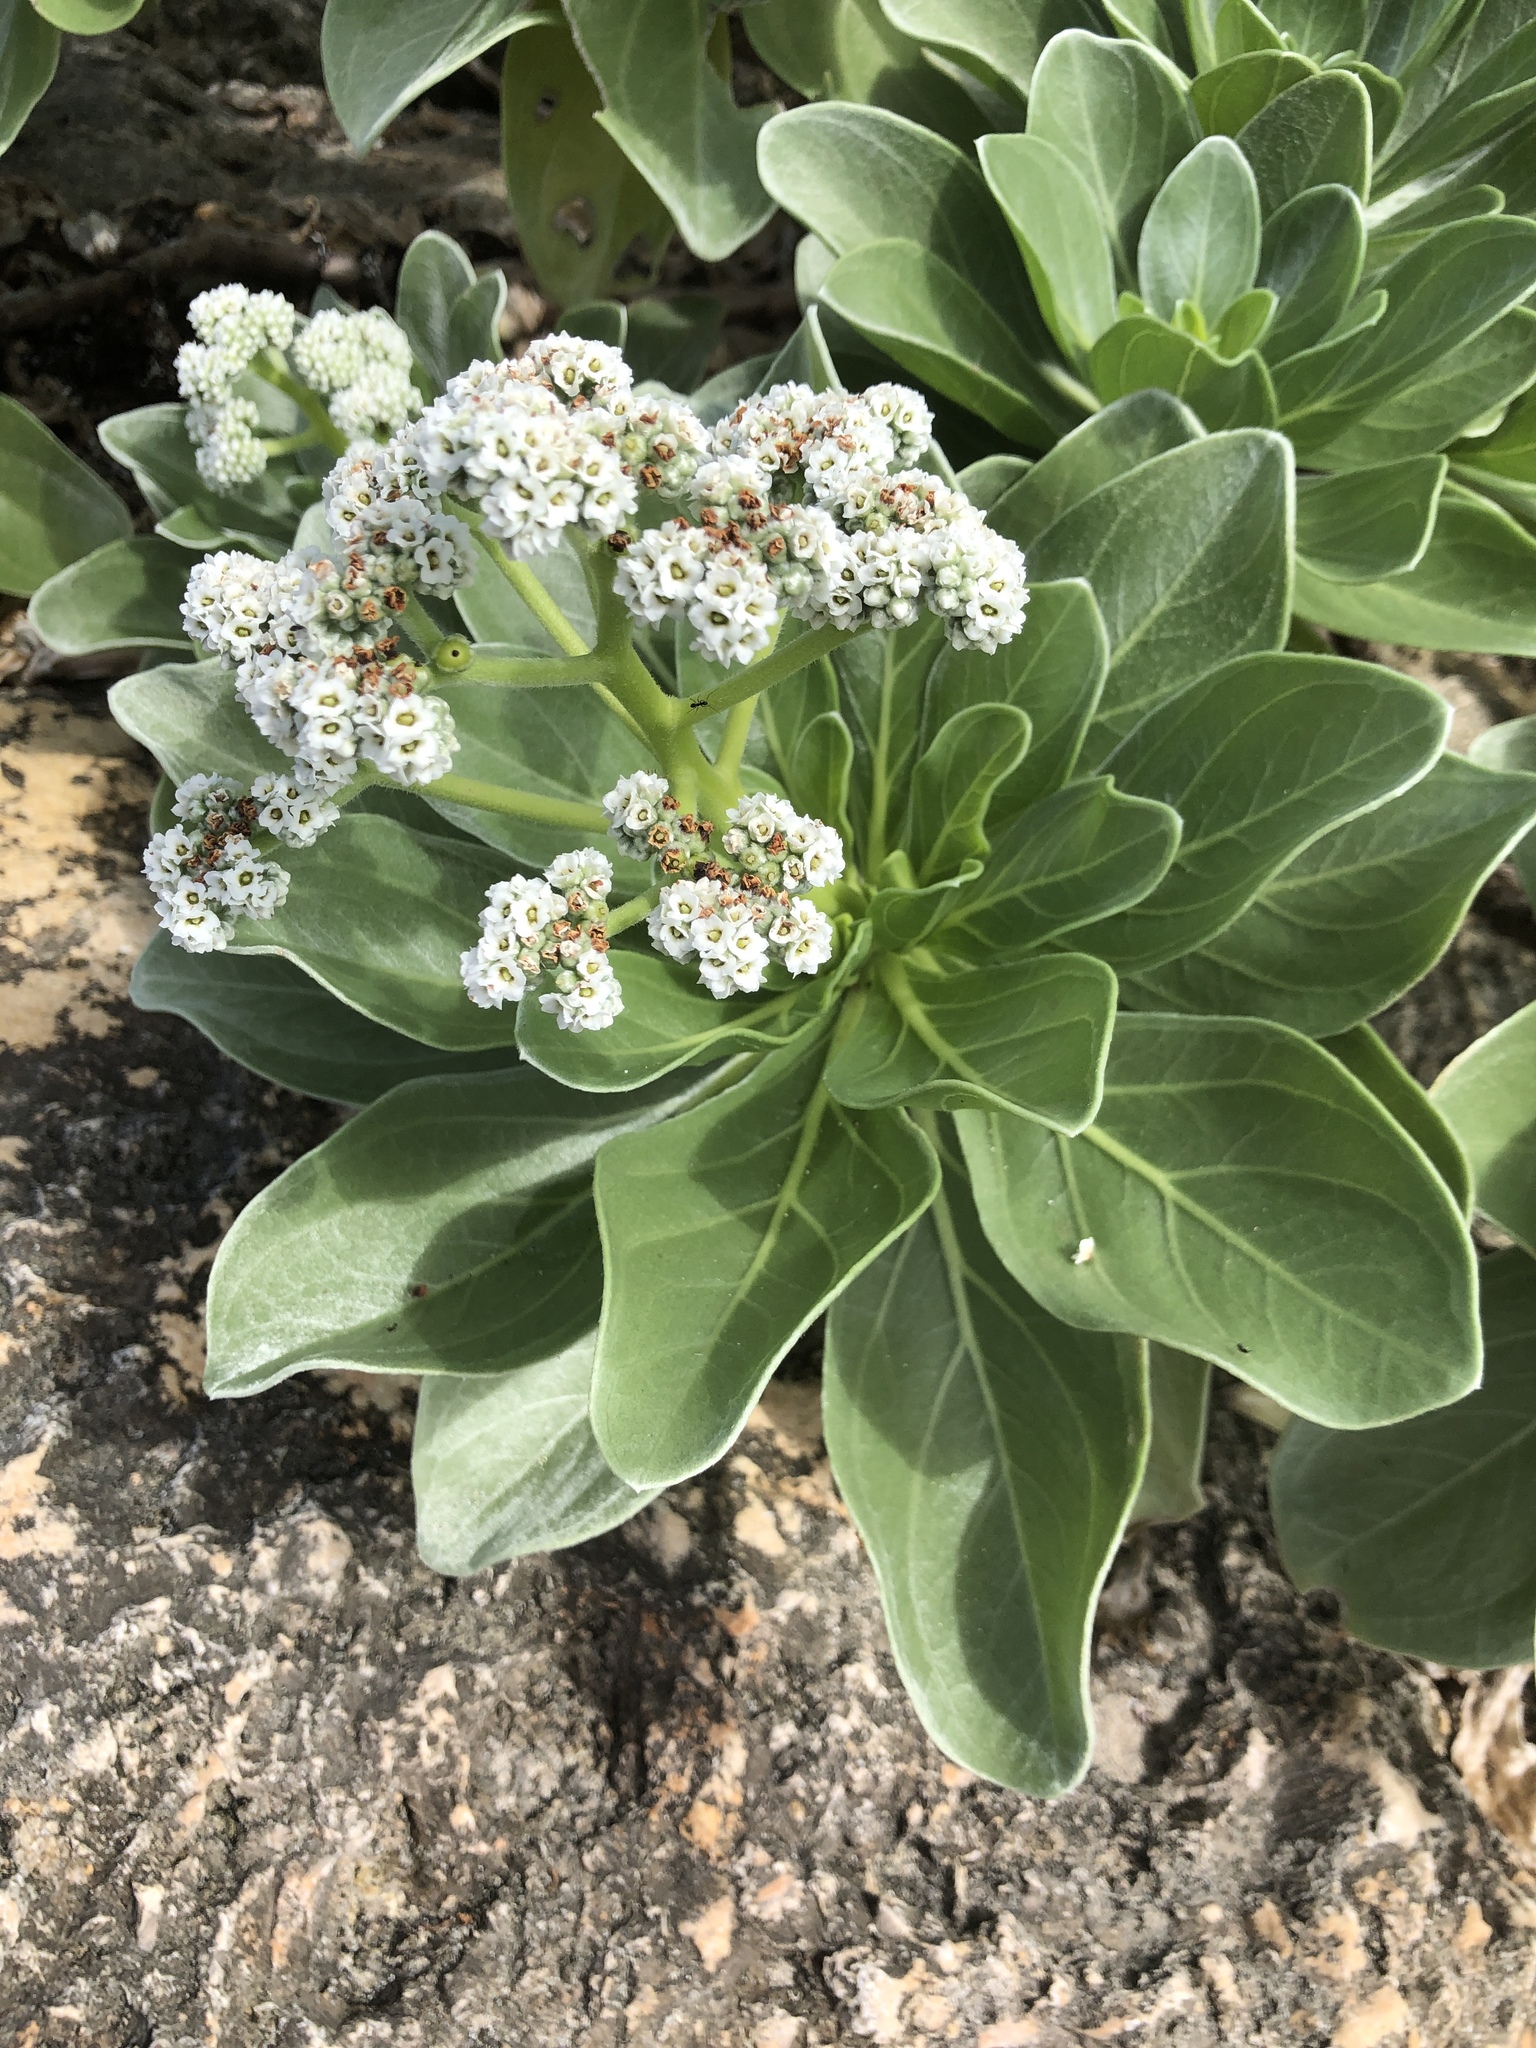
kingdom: Plantae
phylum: Tracheophyta
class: Magnoliopsida
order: Boraginales
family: Heliotropiaceae
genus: Heliotropium
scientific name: Heliotropium velutinum
